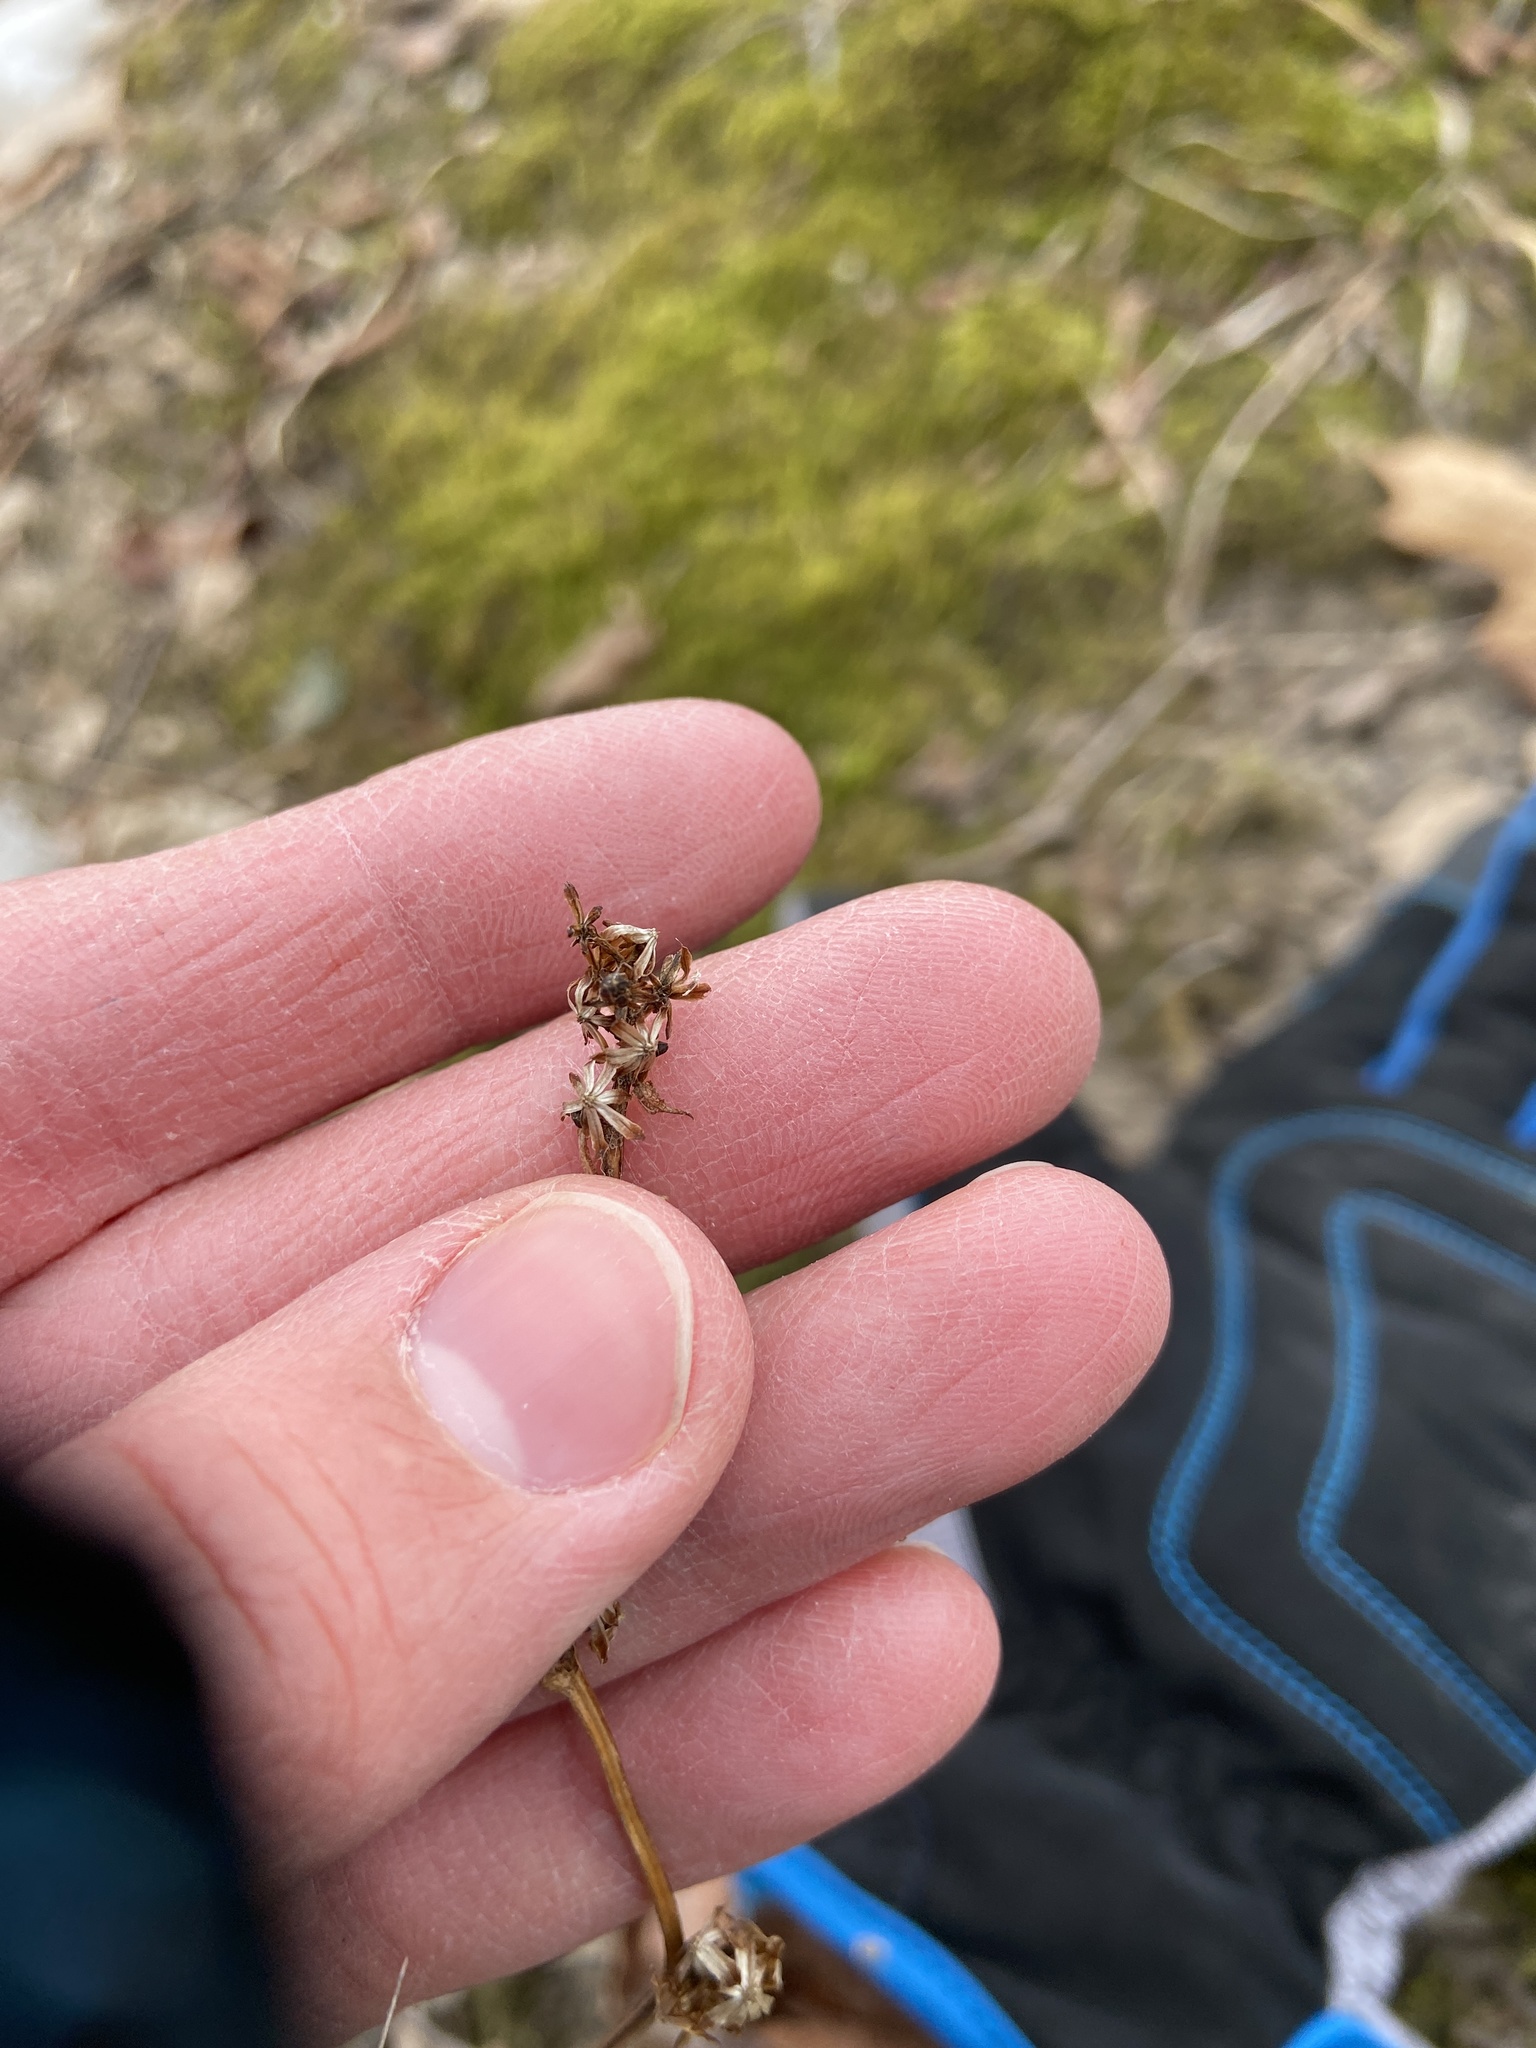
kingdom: Plantae
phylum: Tracheophyta
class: Magnoliopsida
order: Asterales
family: Asteraceae
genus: Solidago
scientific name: Solidago flexicaulis
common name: Zig-zag goldenrod
